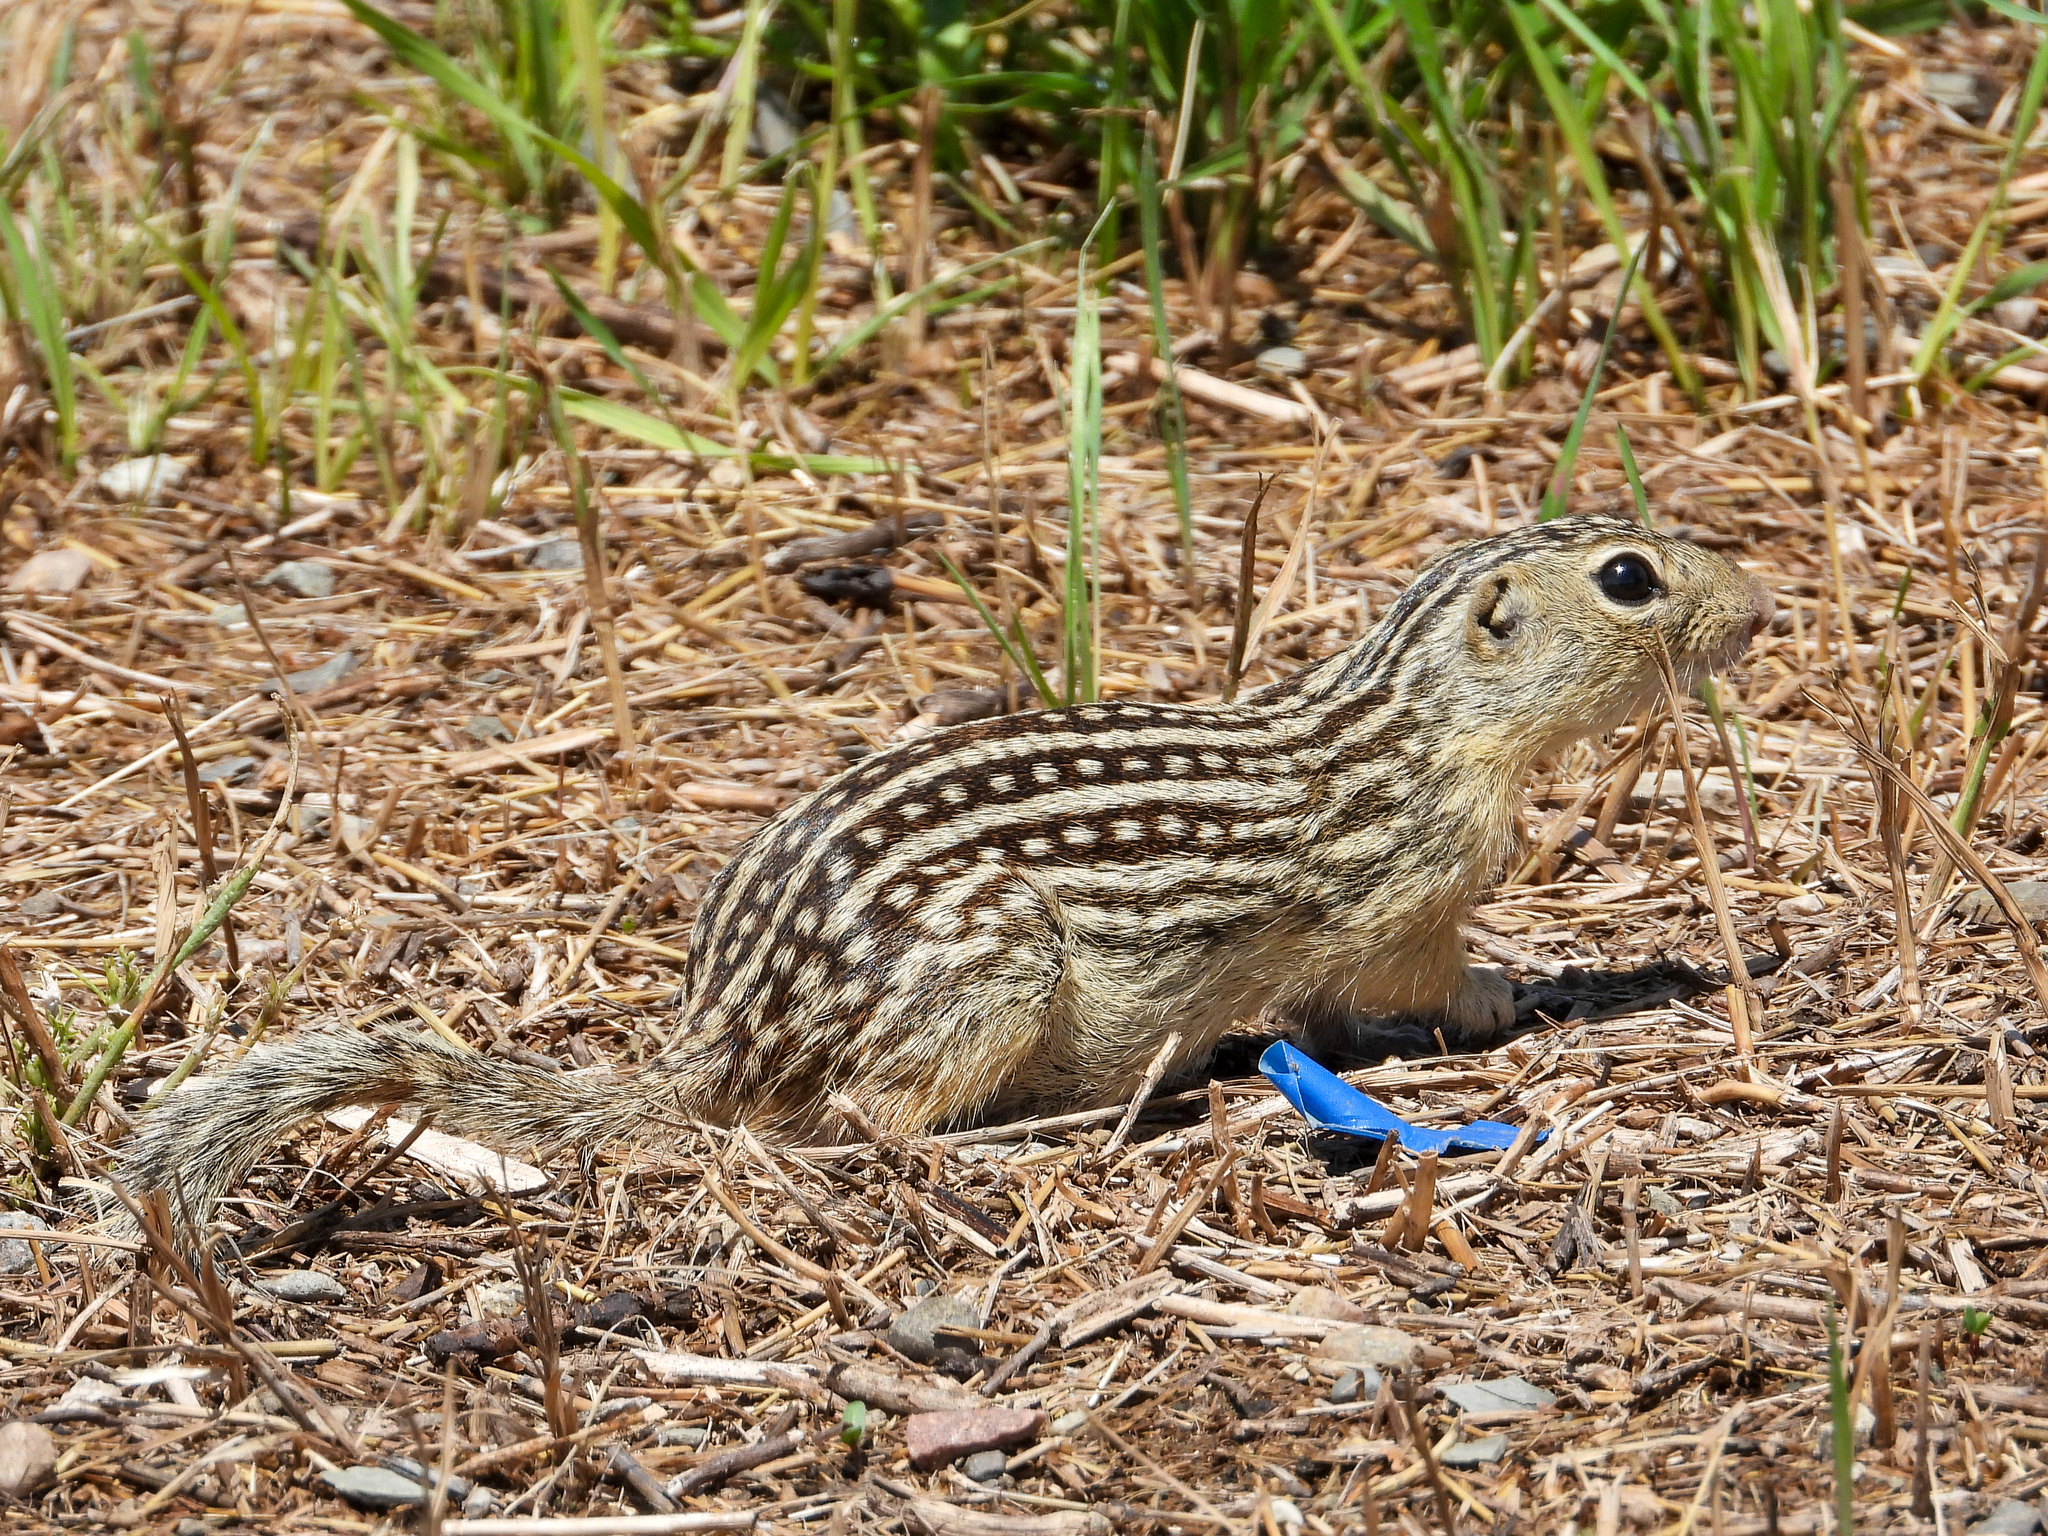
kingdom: Animalia
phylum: Chordata
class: Mammalia
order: Rodentia
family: Sciuridae
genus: Ictidomys
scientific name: Ictidomys tridecemlineatus
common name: Thirteen-lined ground squirrel
